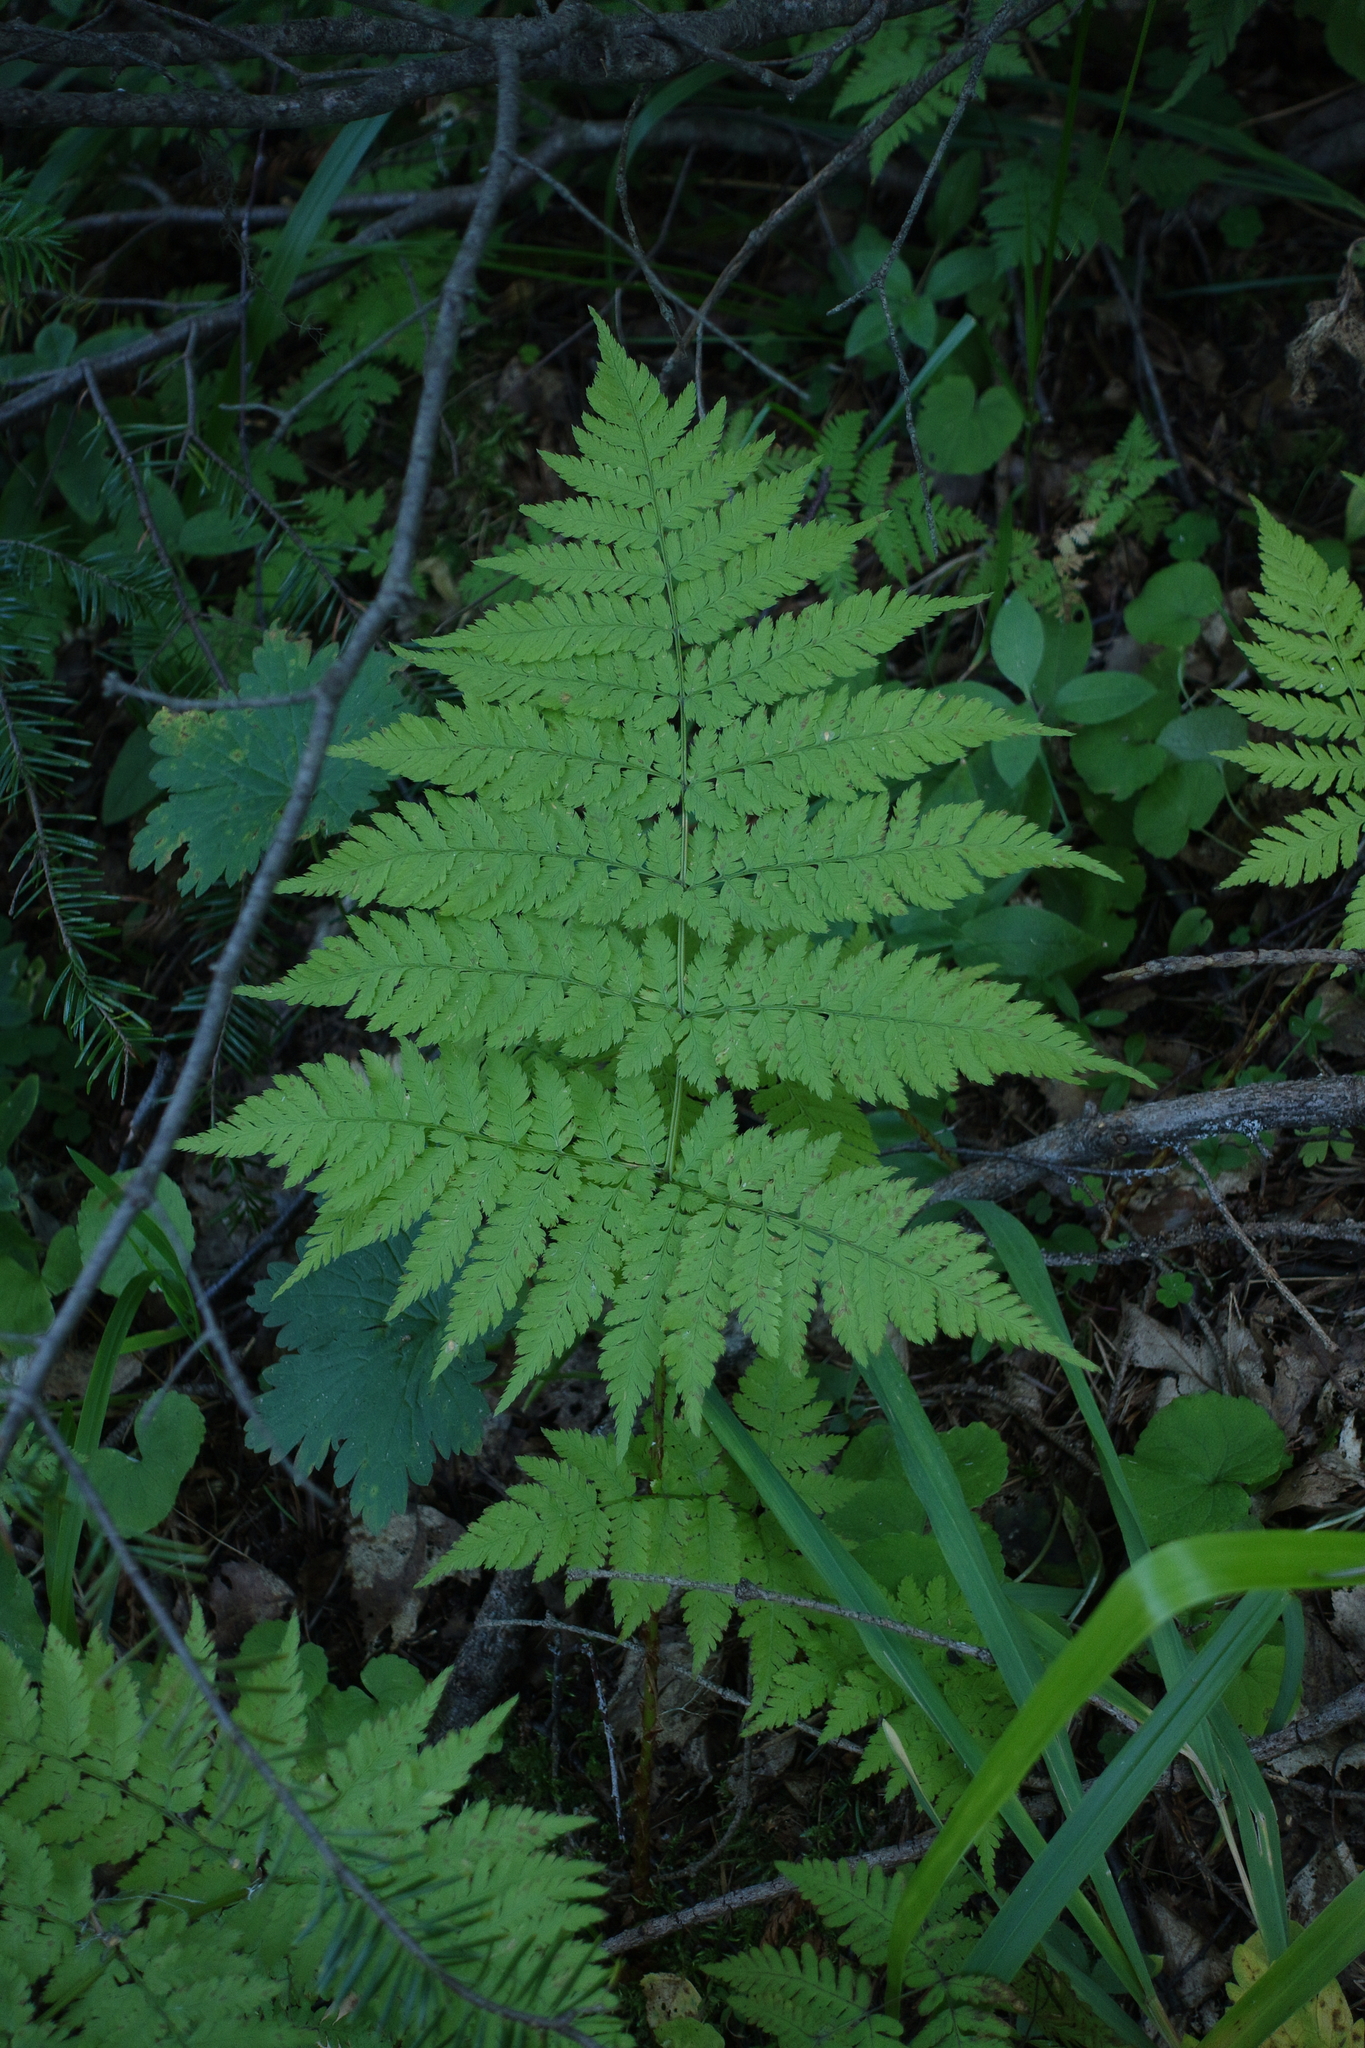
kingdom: Plantae
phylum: Tracheophyta
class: Polypodiopsida
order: Polypodiales
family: Dryopteridaceae
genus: Dryopteris
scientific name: Dryopteris expansa
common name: Northern buckler fern
